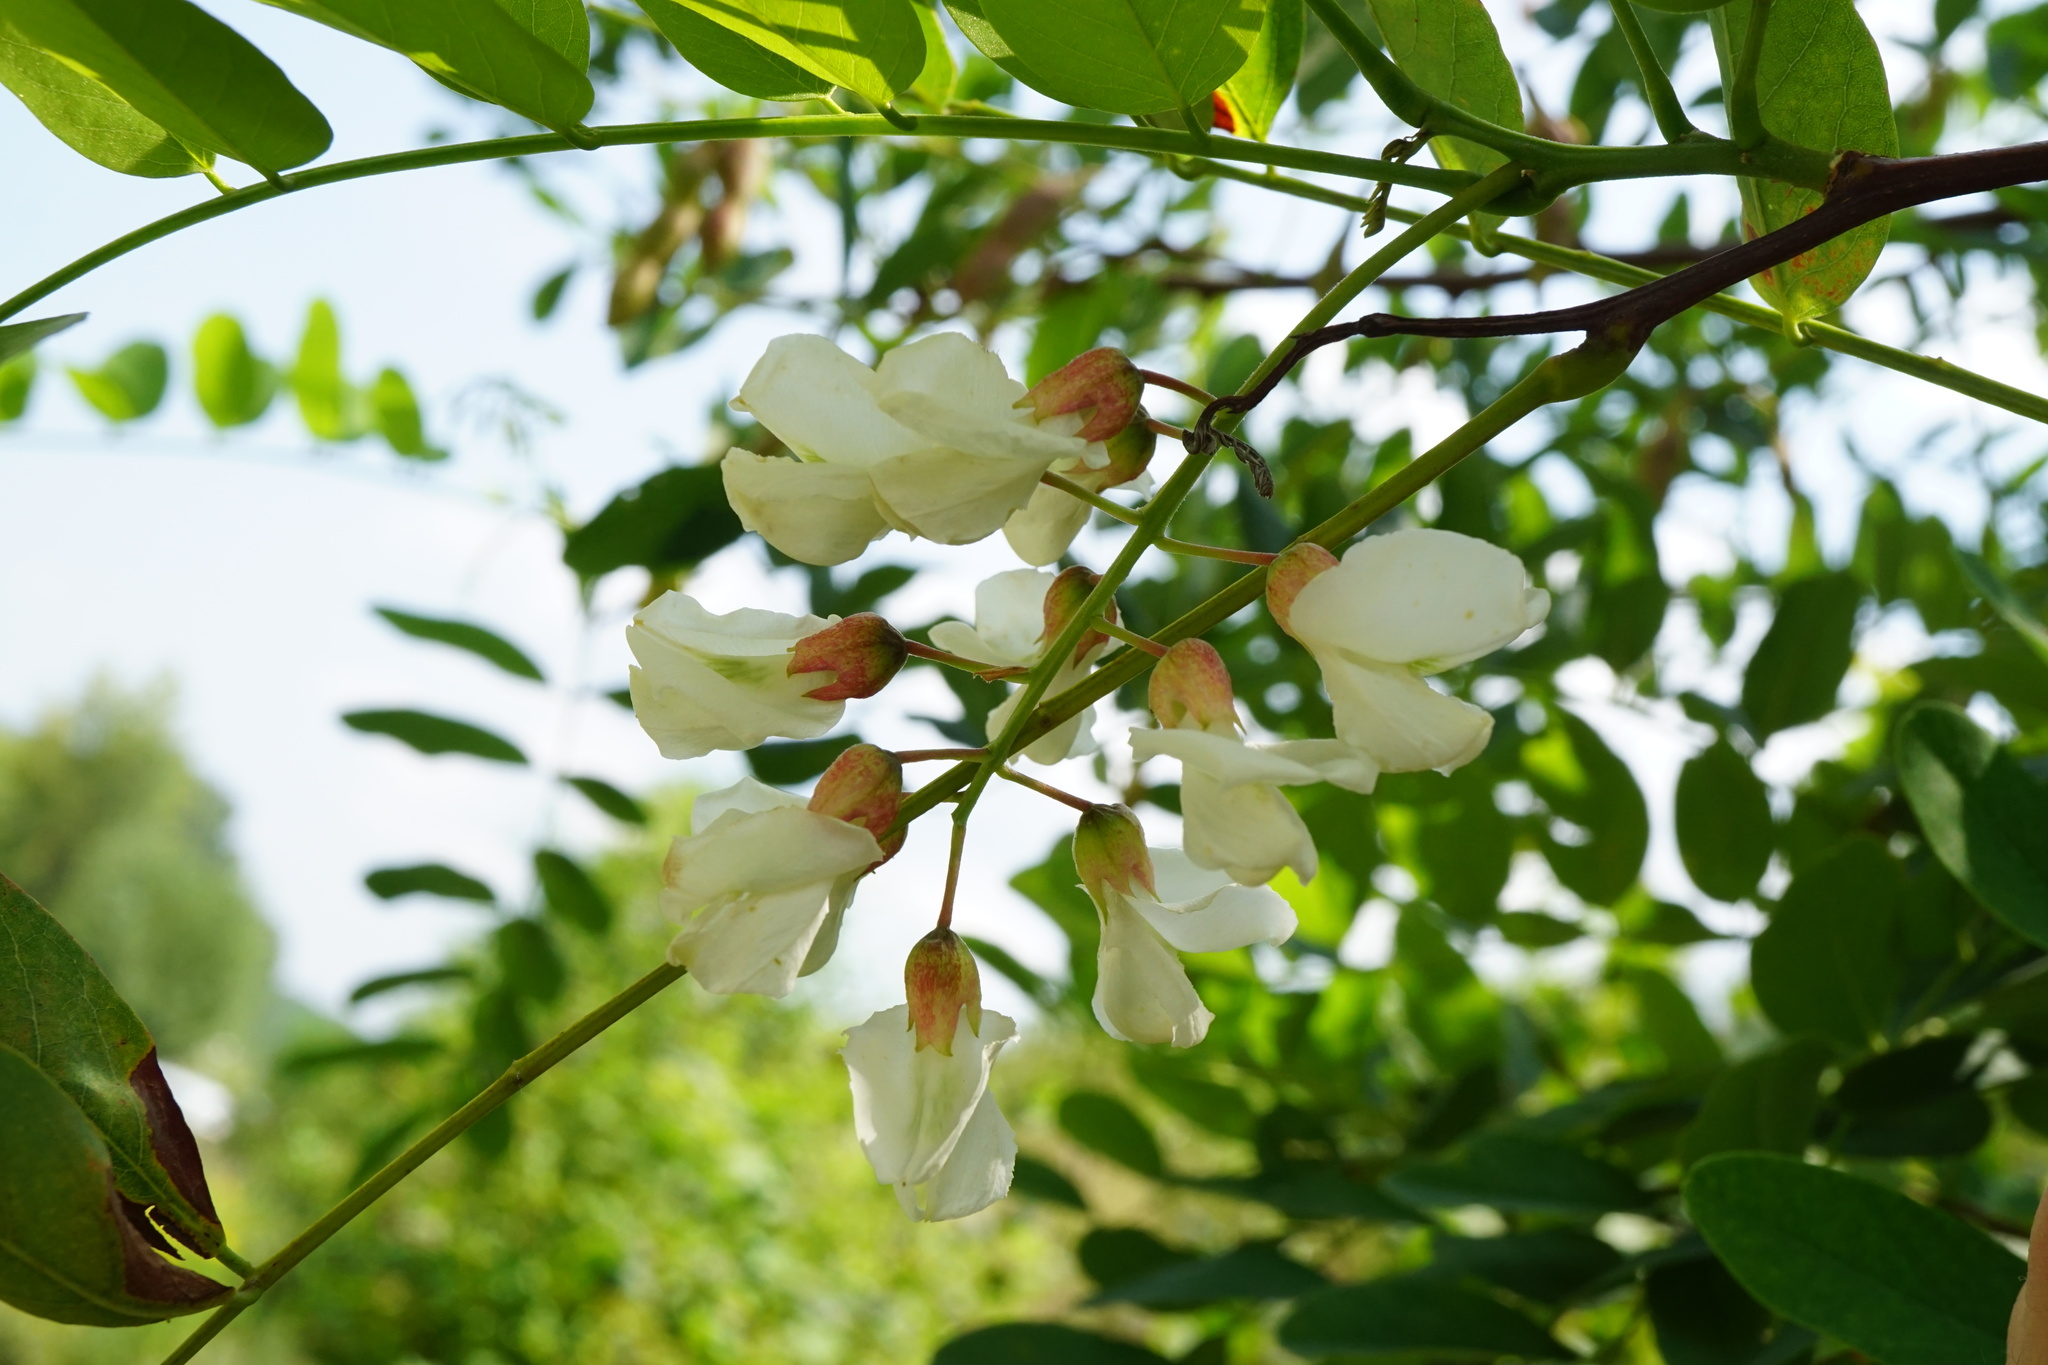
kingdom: Plantae
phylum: Tracheophyta
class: Magnoliopsida
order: Fabales
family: Fabaceae
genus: Robinia
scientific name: Robinia pseudoacacia
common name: Black locust
